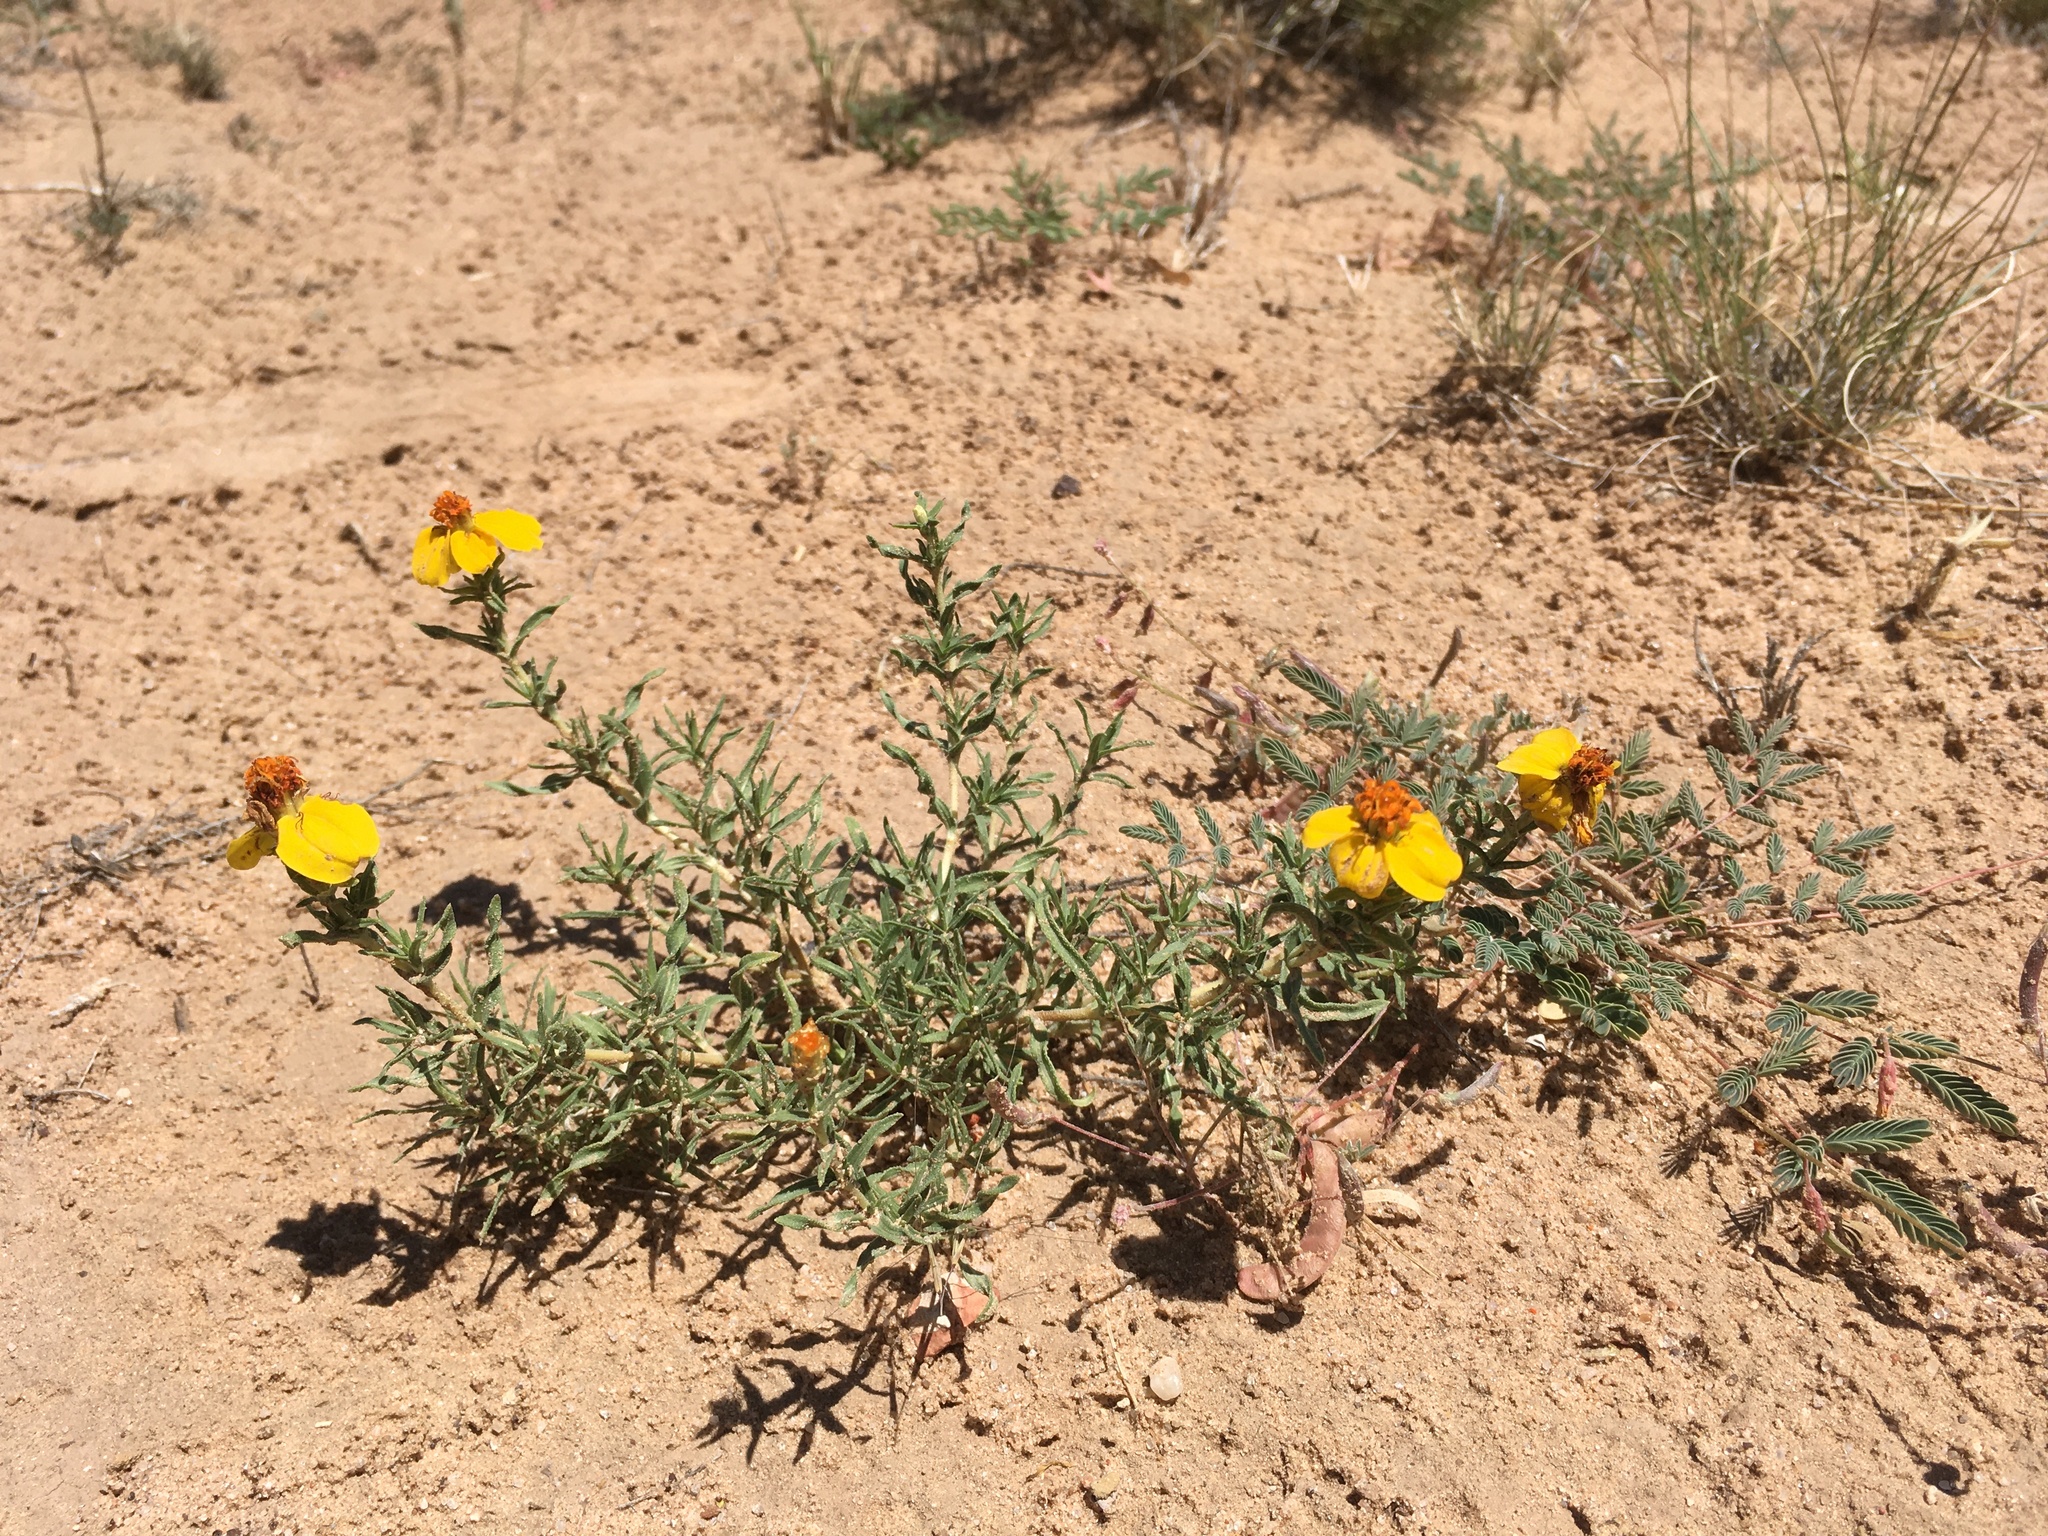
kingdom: Plantae
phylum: Tracheophyta
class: Magnoliopsida
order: Asterales
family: Asteraceae
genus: Zinnia
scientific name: Zinnia grandiflora
